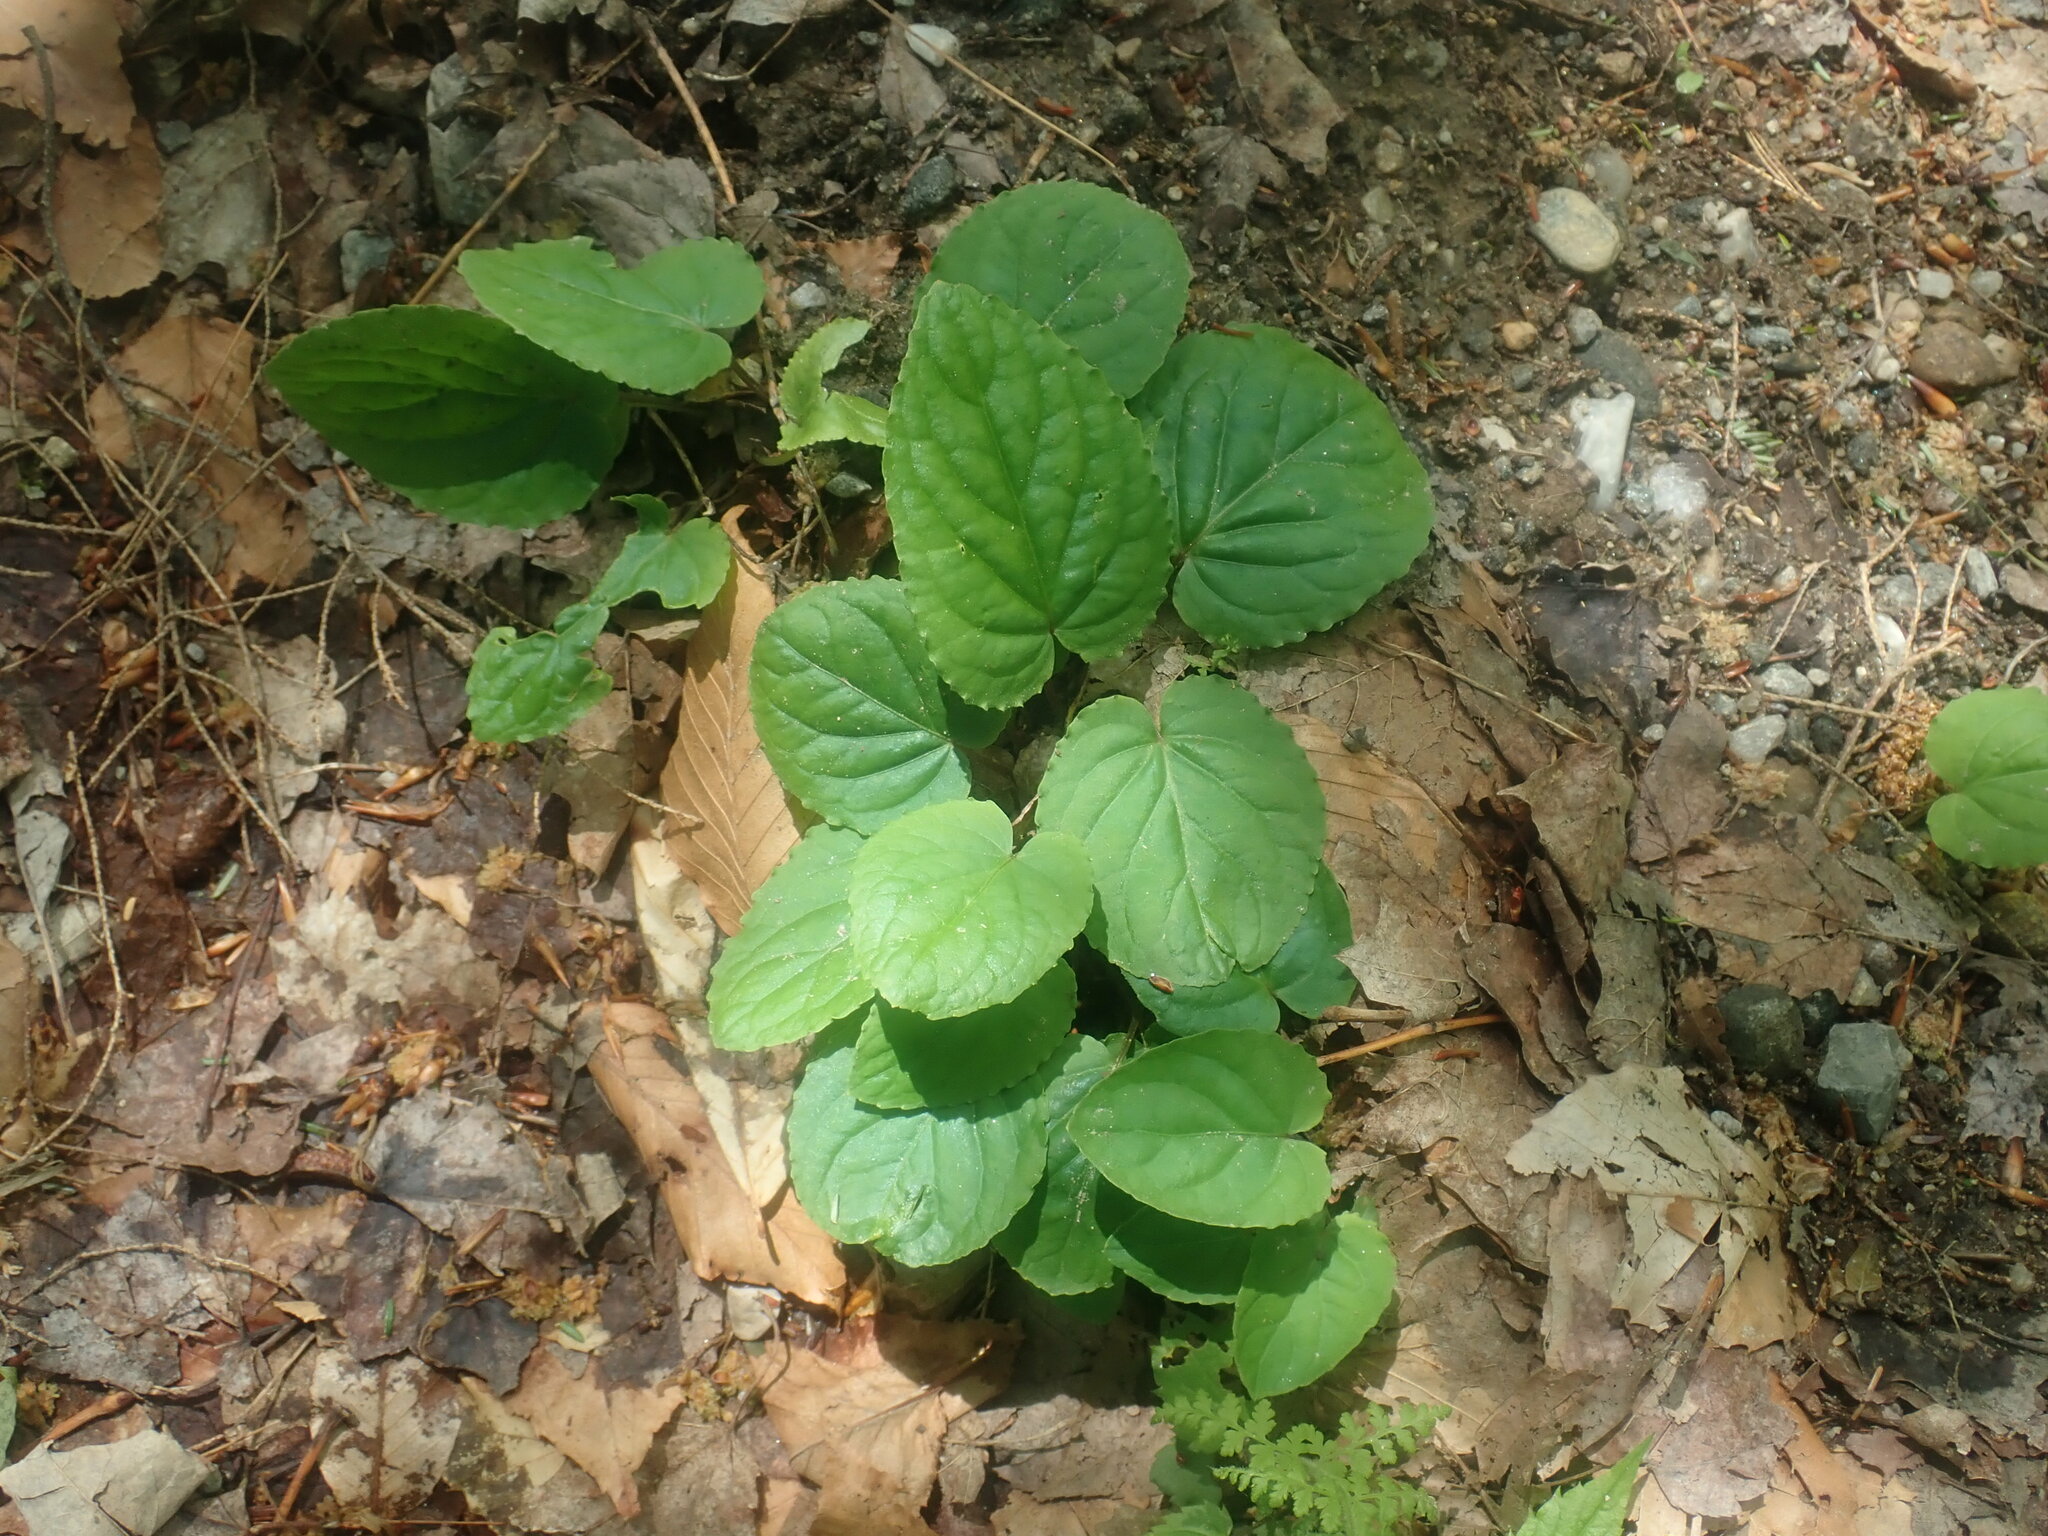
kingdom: Plantae
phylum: Tracheophyta
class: Magnoliopsida
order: Malpighiales
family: Violaceae
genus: Viola
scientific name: Viola rotundifolia
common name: Early yellow violet
